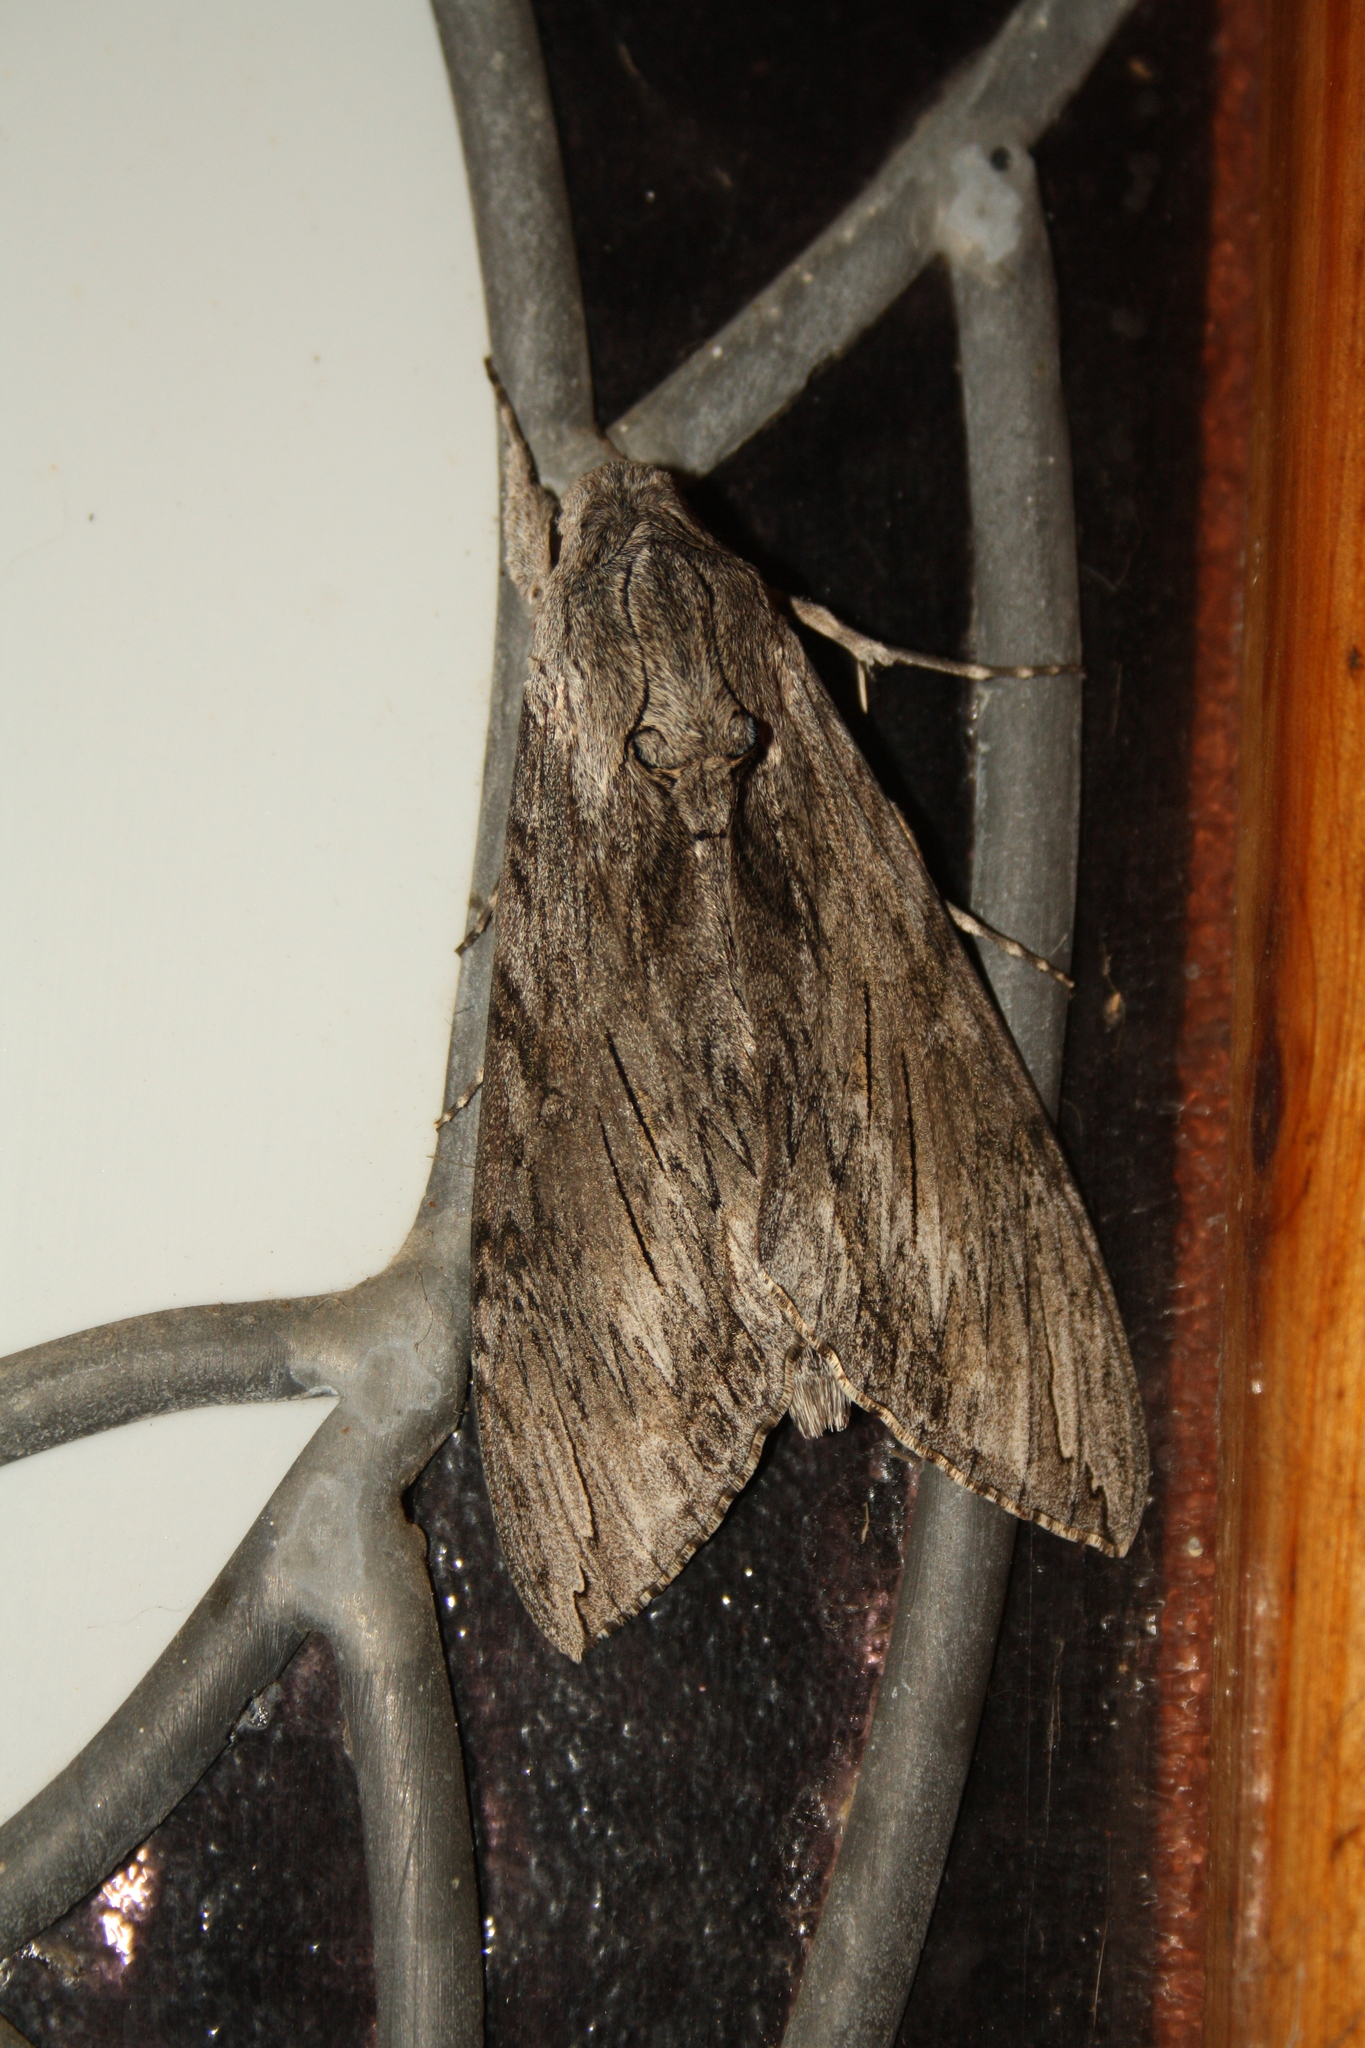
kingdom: Animalia
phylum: Arthropoda
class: Insecta
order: Lepidoptera
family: Sphingidae
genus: Agrius
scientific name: Agrius convolvuli
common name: Convolvulus hawkmoth
